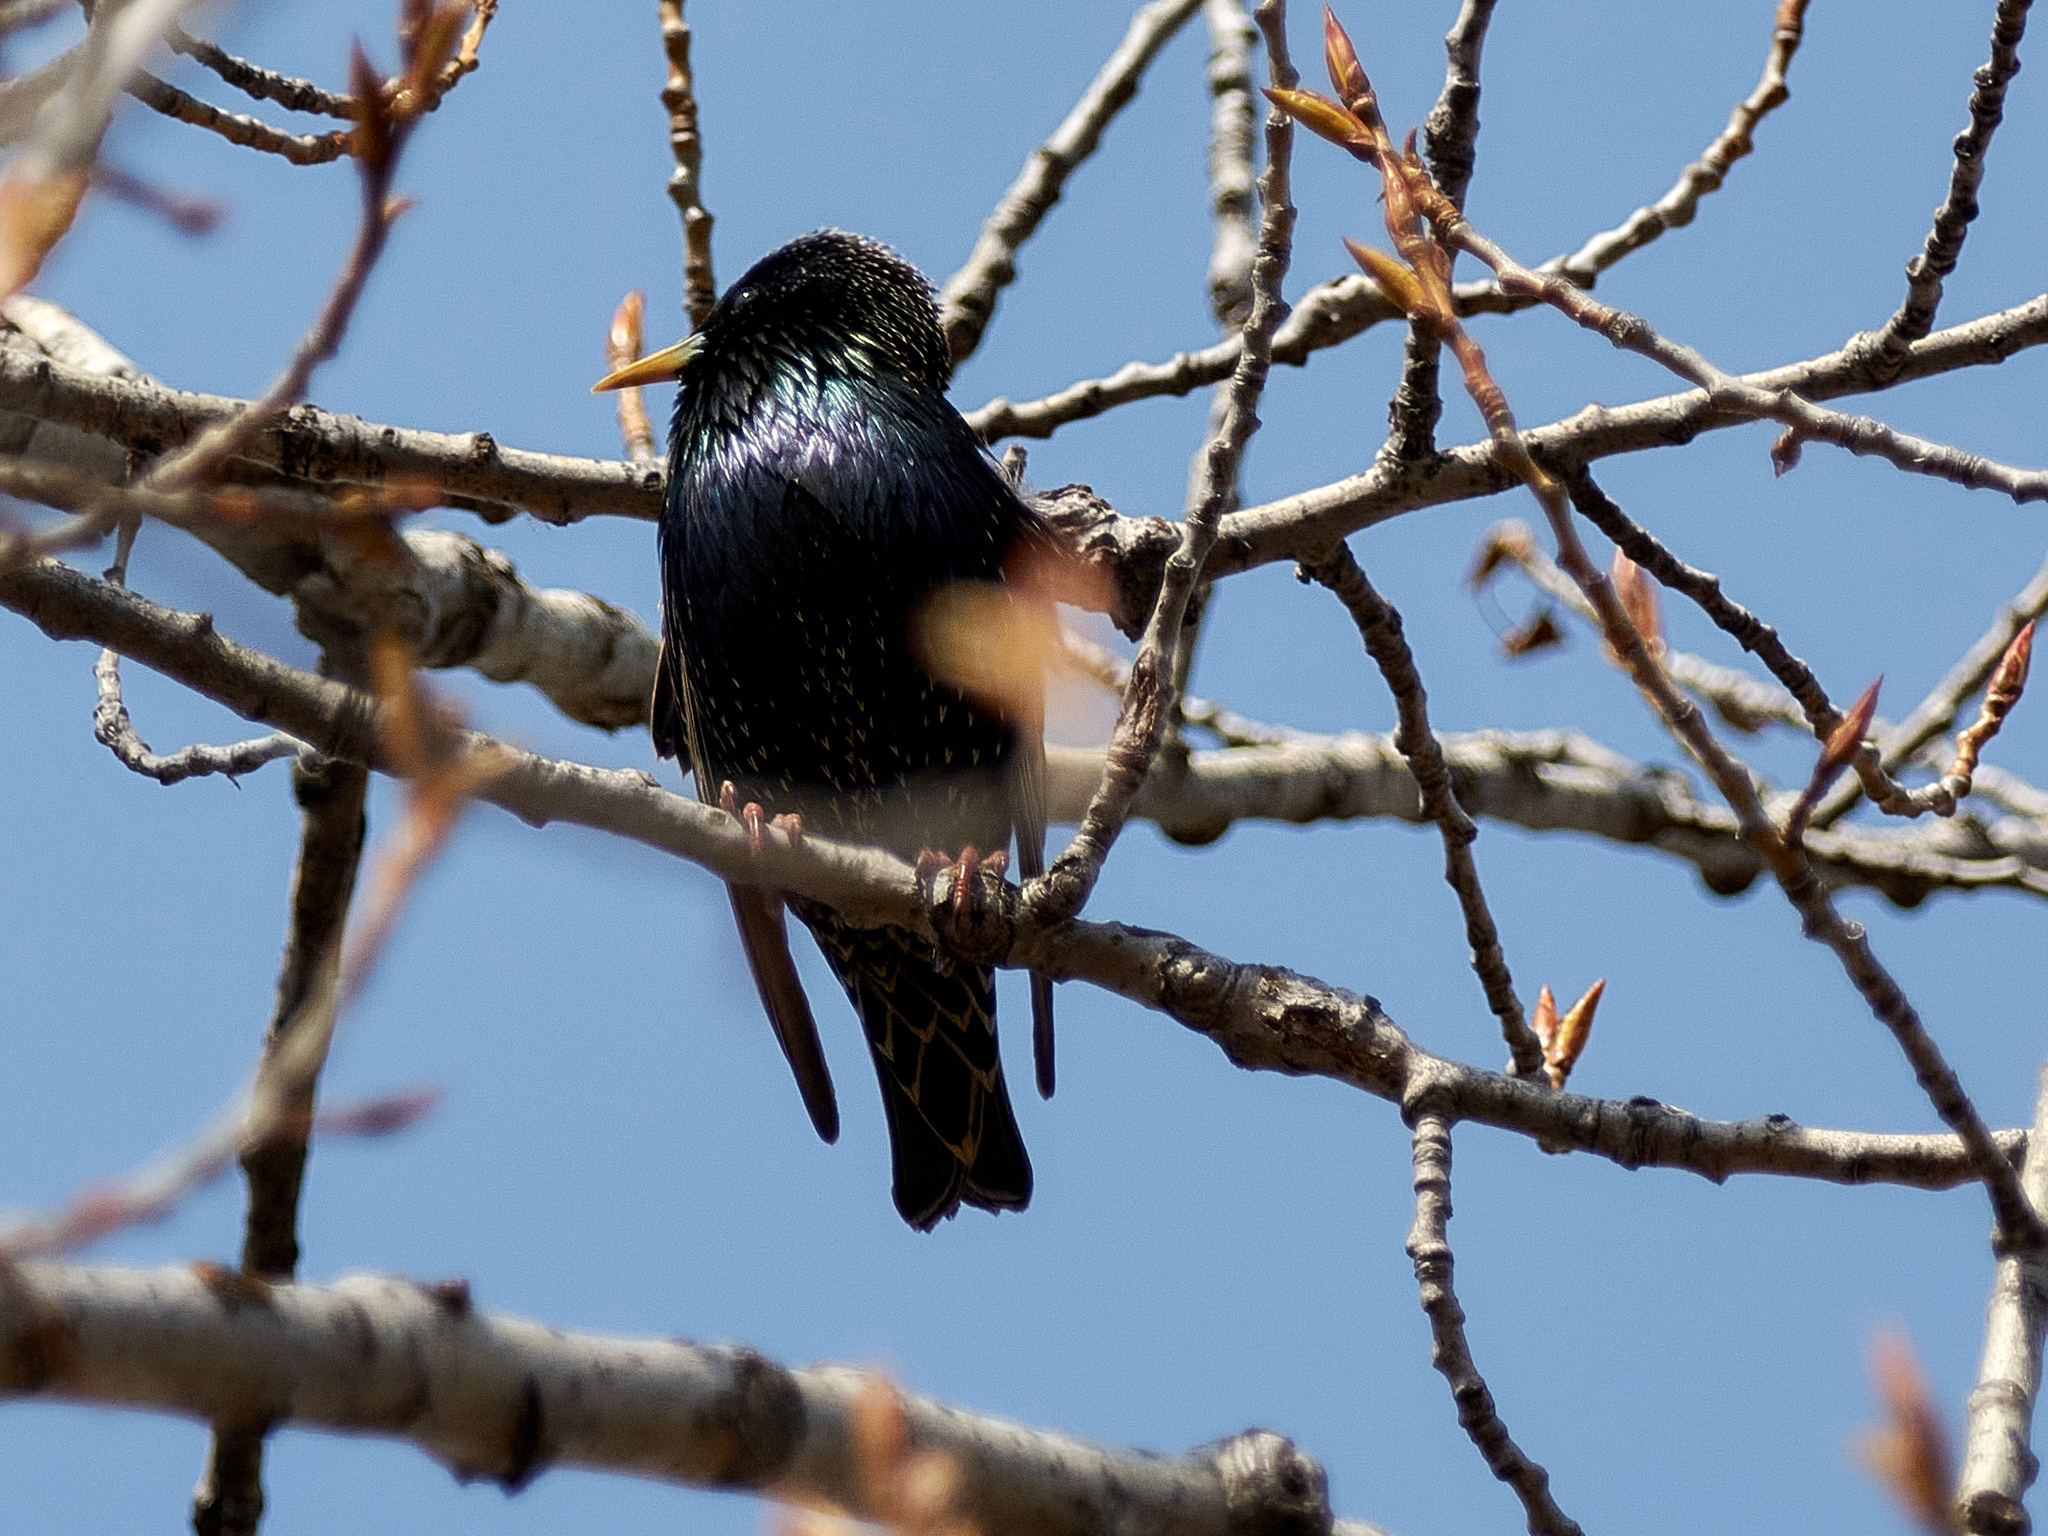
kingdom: Animalia
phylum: Chordata
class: Aves
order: Passeriformes
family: Sturnidae
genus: Sturnus
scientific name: Sturnus vulgaris
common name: Common starling
